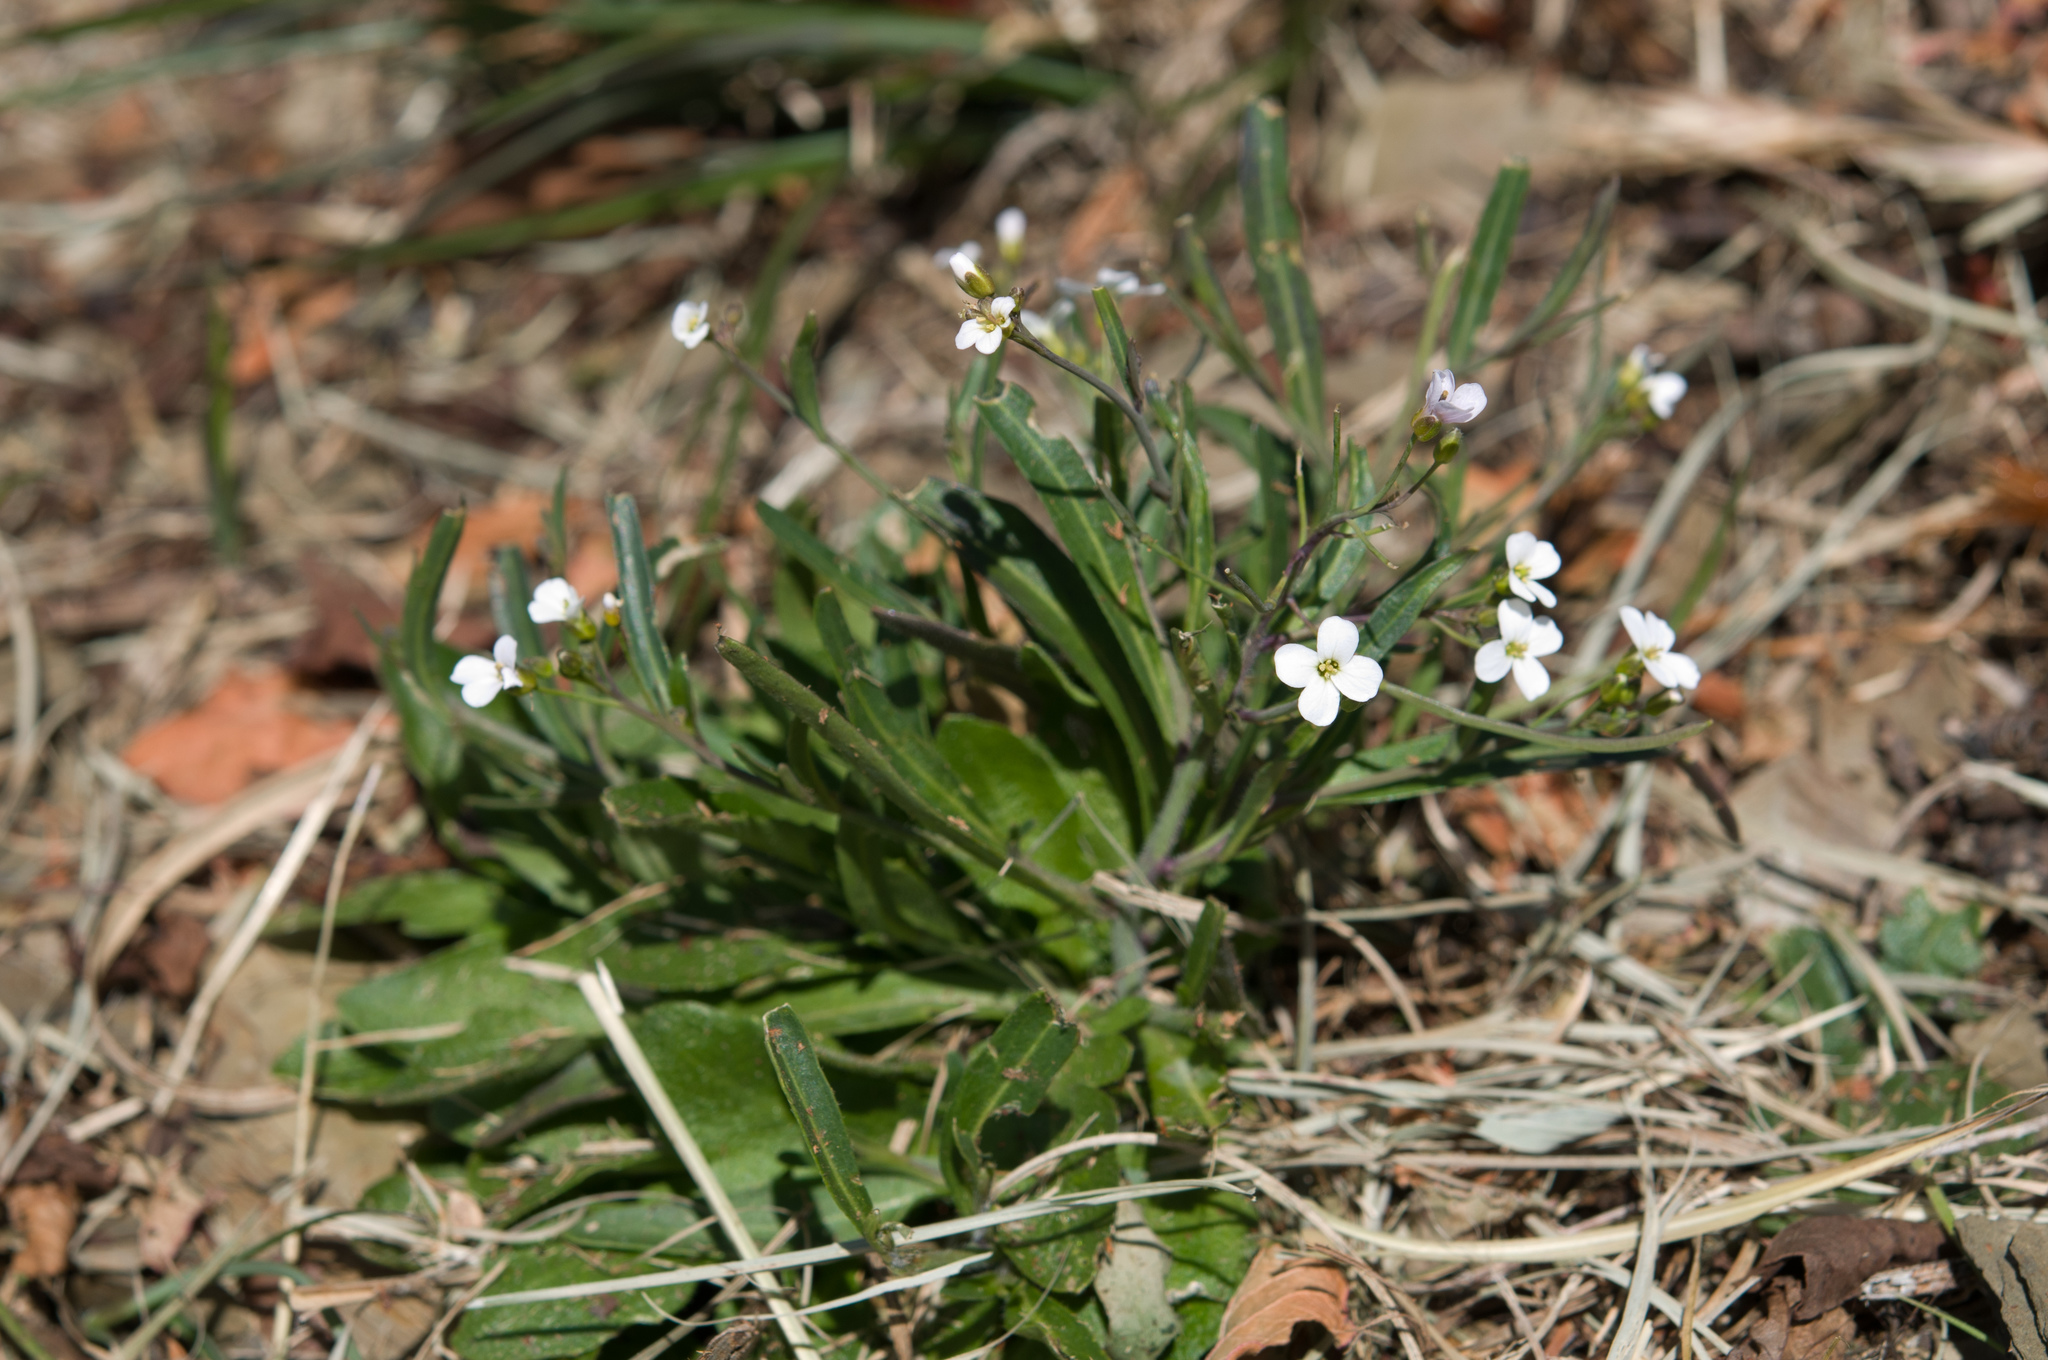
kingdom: Plantae
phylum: Tracheophyta
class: Magnoliopsida
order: Brassicales
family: Brassicaceae
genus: Arabidopsis
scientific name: Arabidopsis lyrata
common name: Lyrate rockcress
